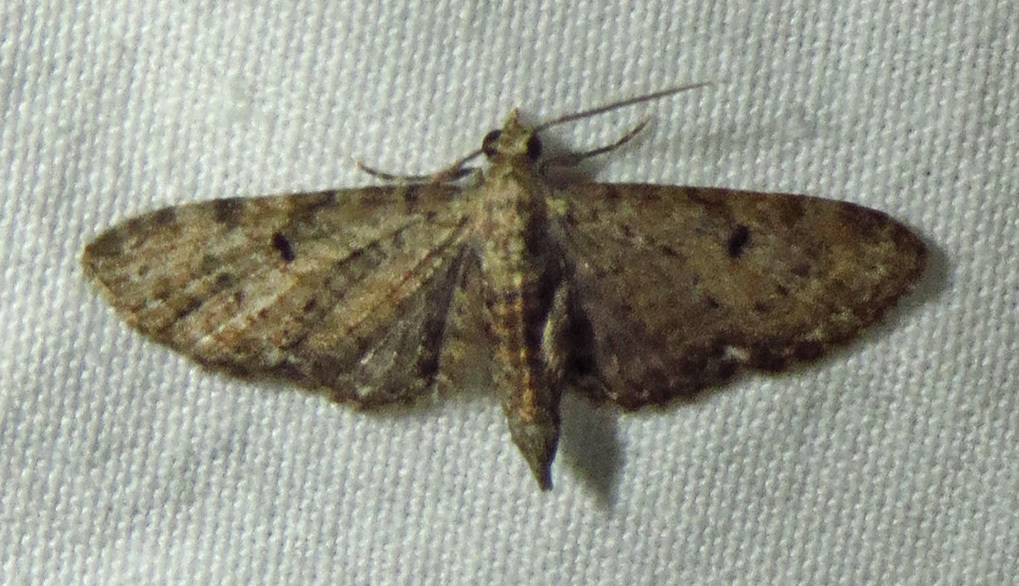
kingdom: Animalia
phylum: Arthropoda
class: Insecta
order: Lepidoptera
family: Geometridae
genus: Eupithecia
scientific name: Eupithecia miserulata
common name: Common eupithecia
